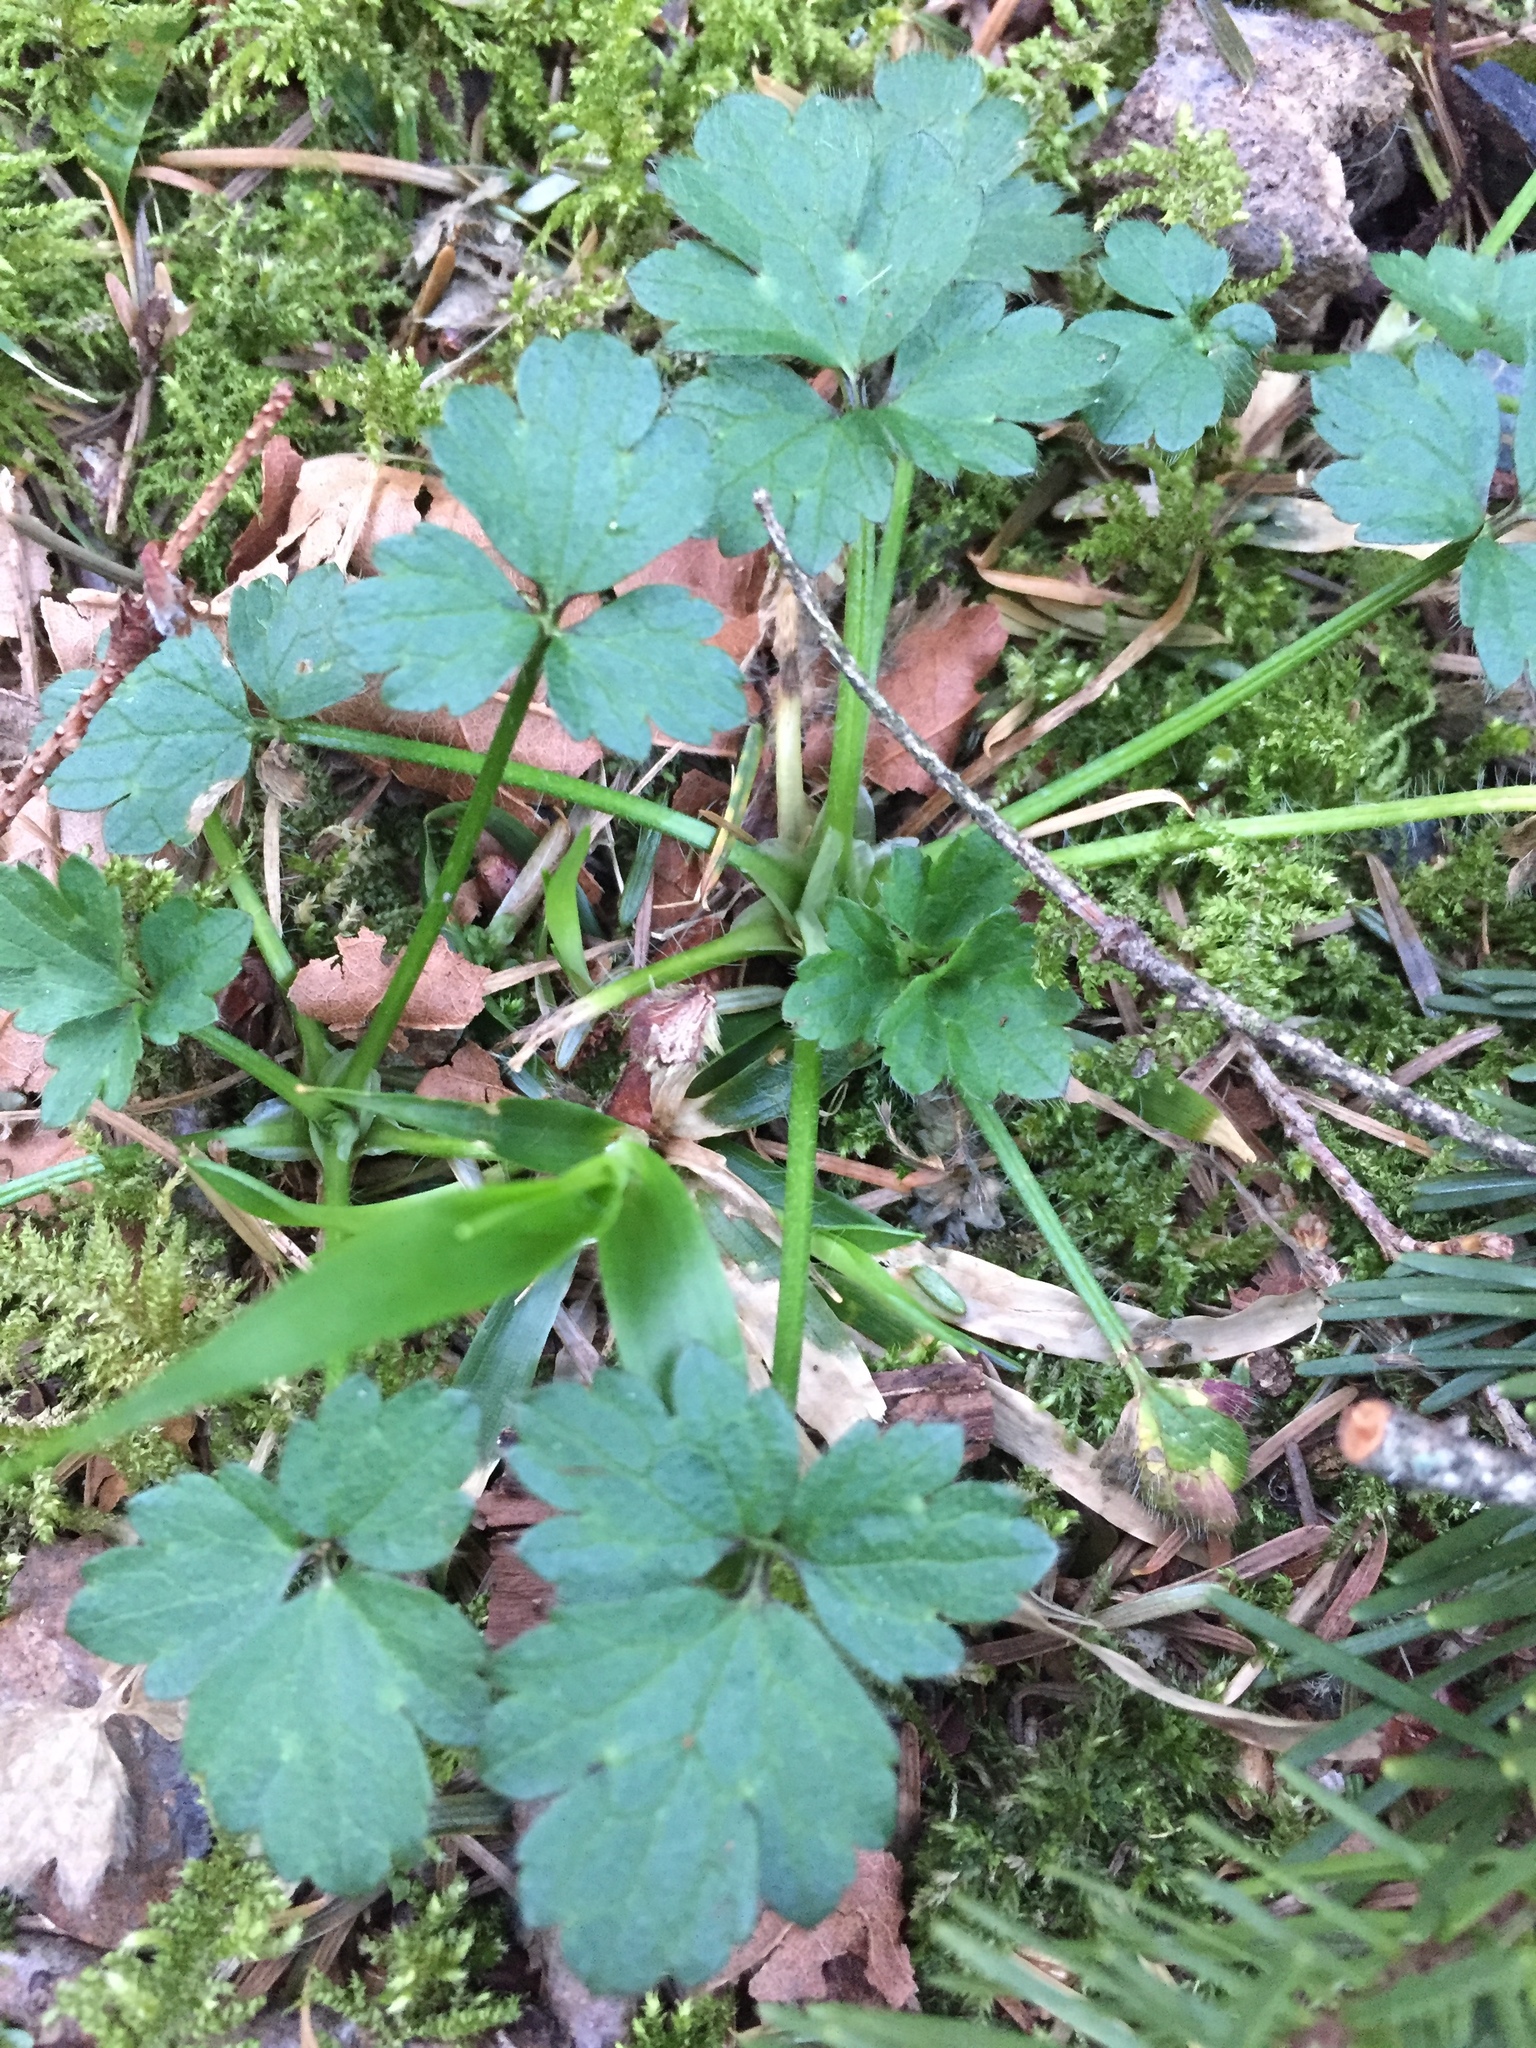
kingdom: Plantae
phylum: Tracheophyta
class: Magnoliopsida
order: Ranunculales
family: Ranunculaceae
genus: Ranunculus
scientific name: Ranunculus repens
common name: Creeping buttercup
